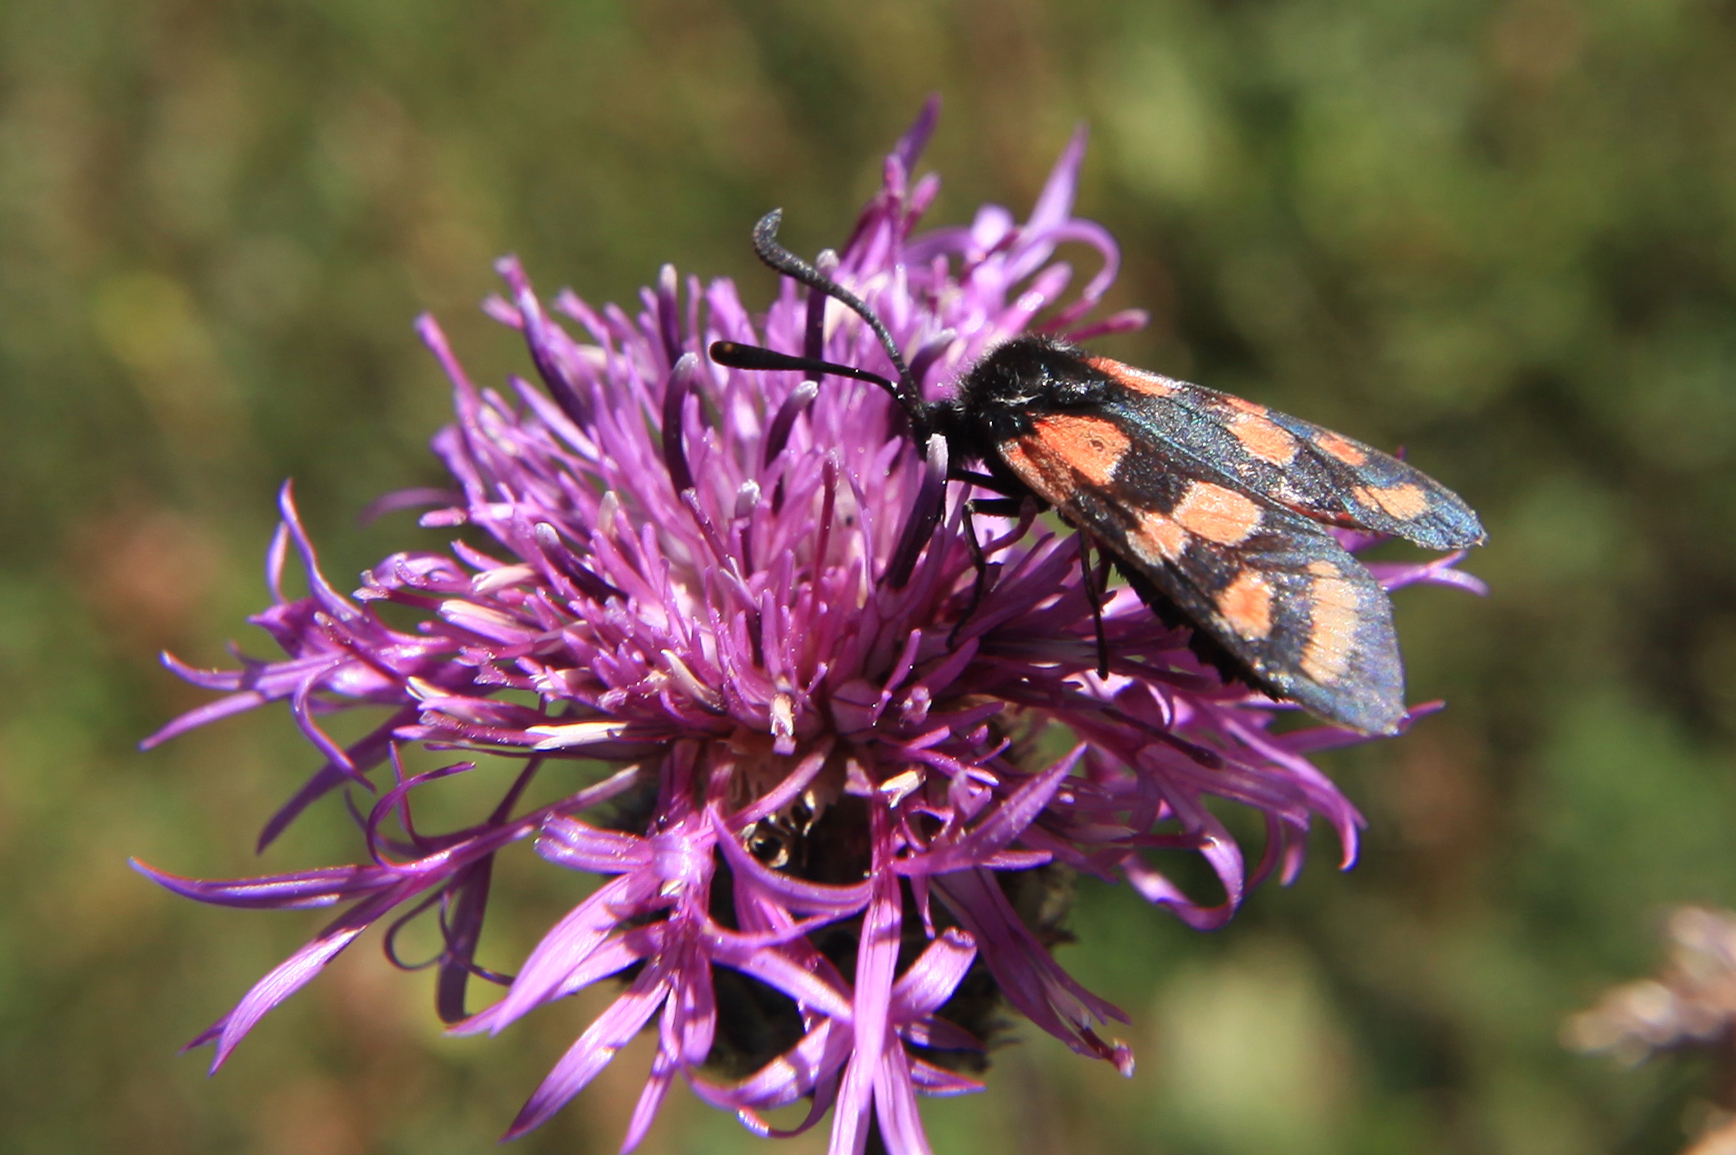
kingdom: Animalia
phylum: Arthropoda
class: Insecta
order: Lepidoptera
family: Zygaenidae
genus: Zygaena
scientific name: Zygaena carniolica
